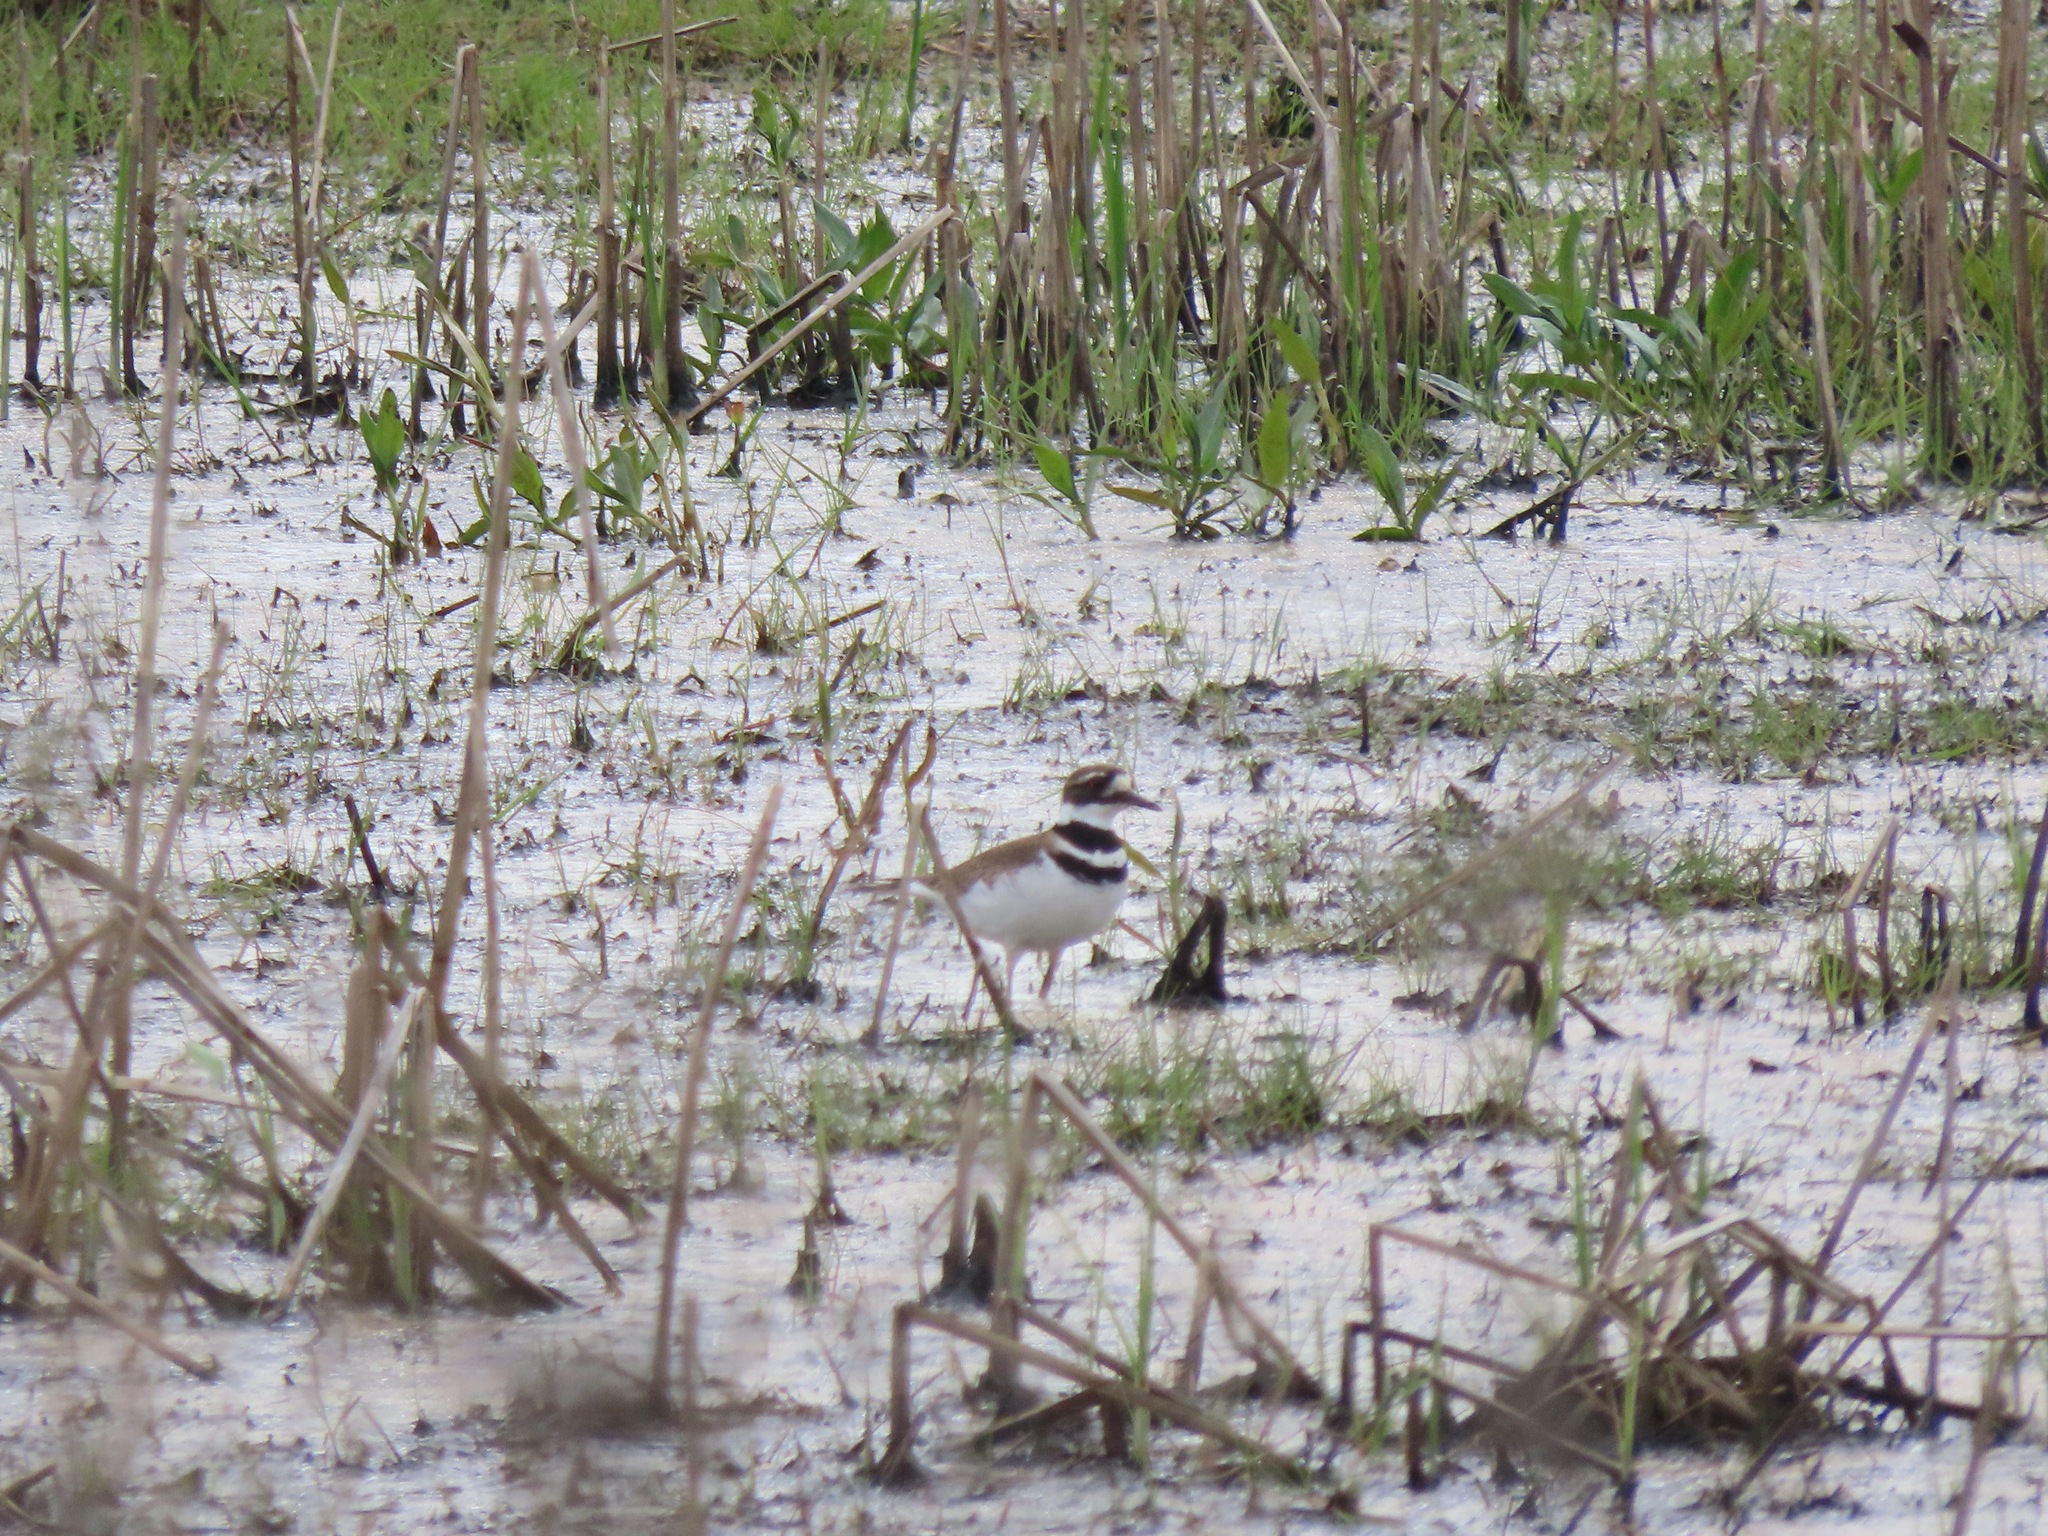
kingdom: Animalia
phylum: Chordata
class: Aves
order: Charadriiformes
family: Charadriidae
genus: Charadrius
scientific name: Charadrius vociferus
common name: Killdeer
